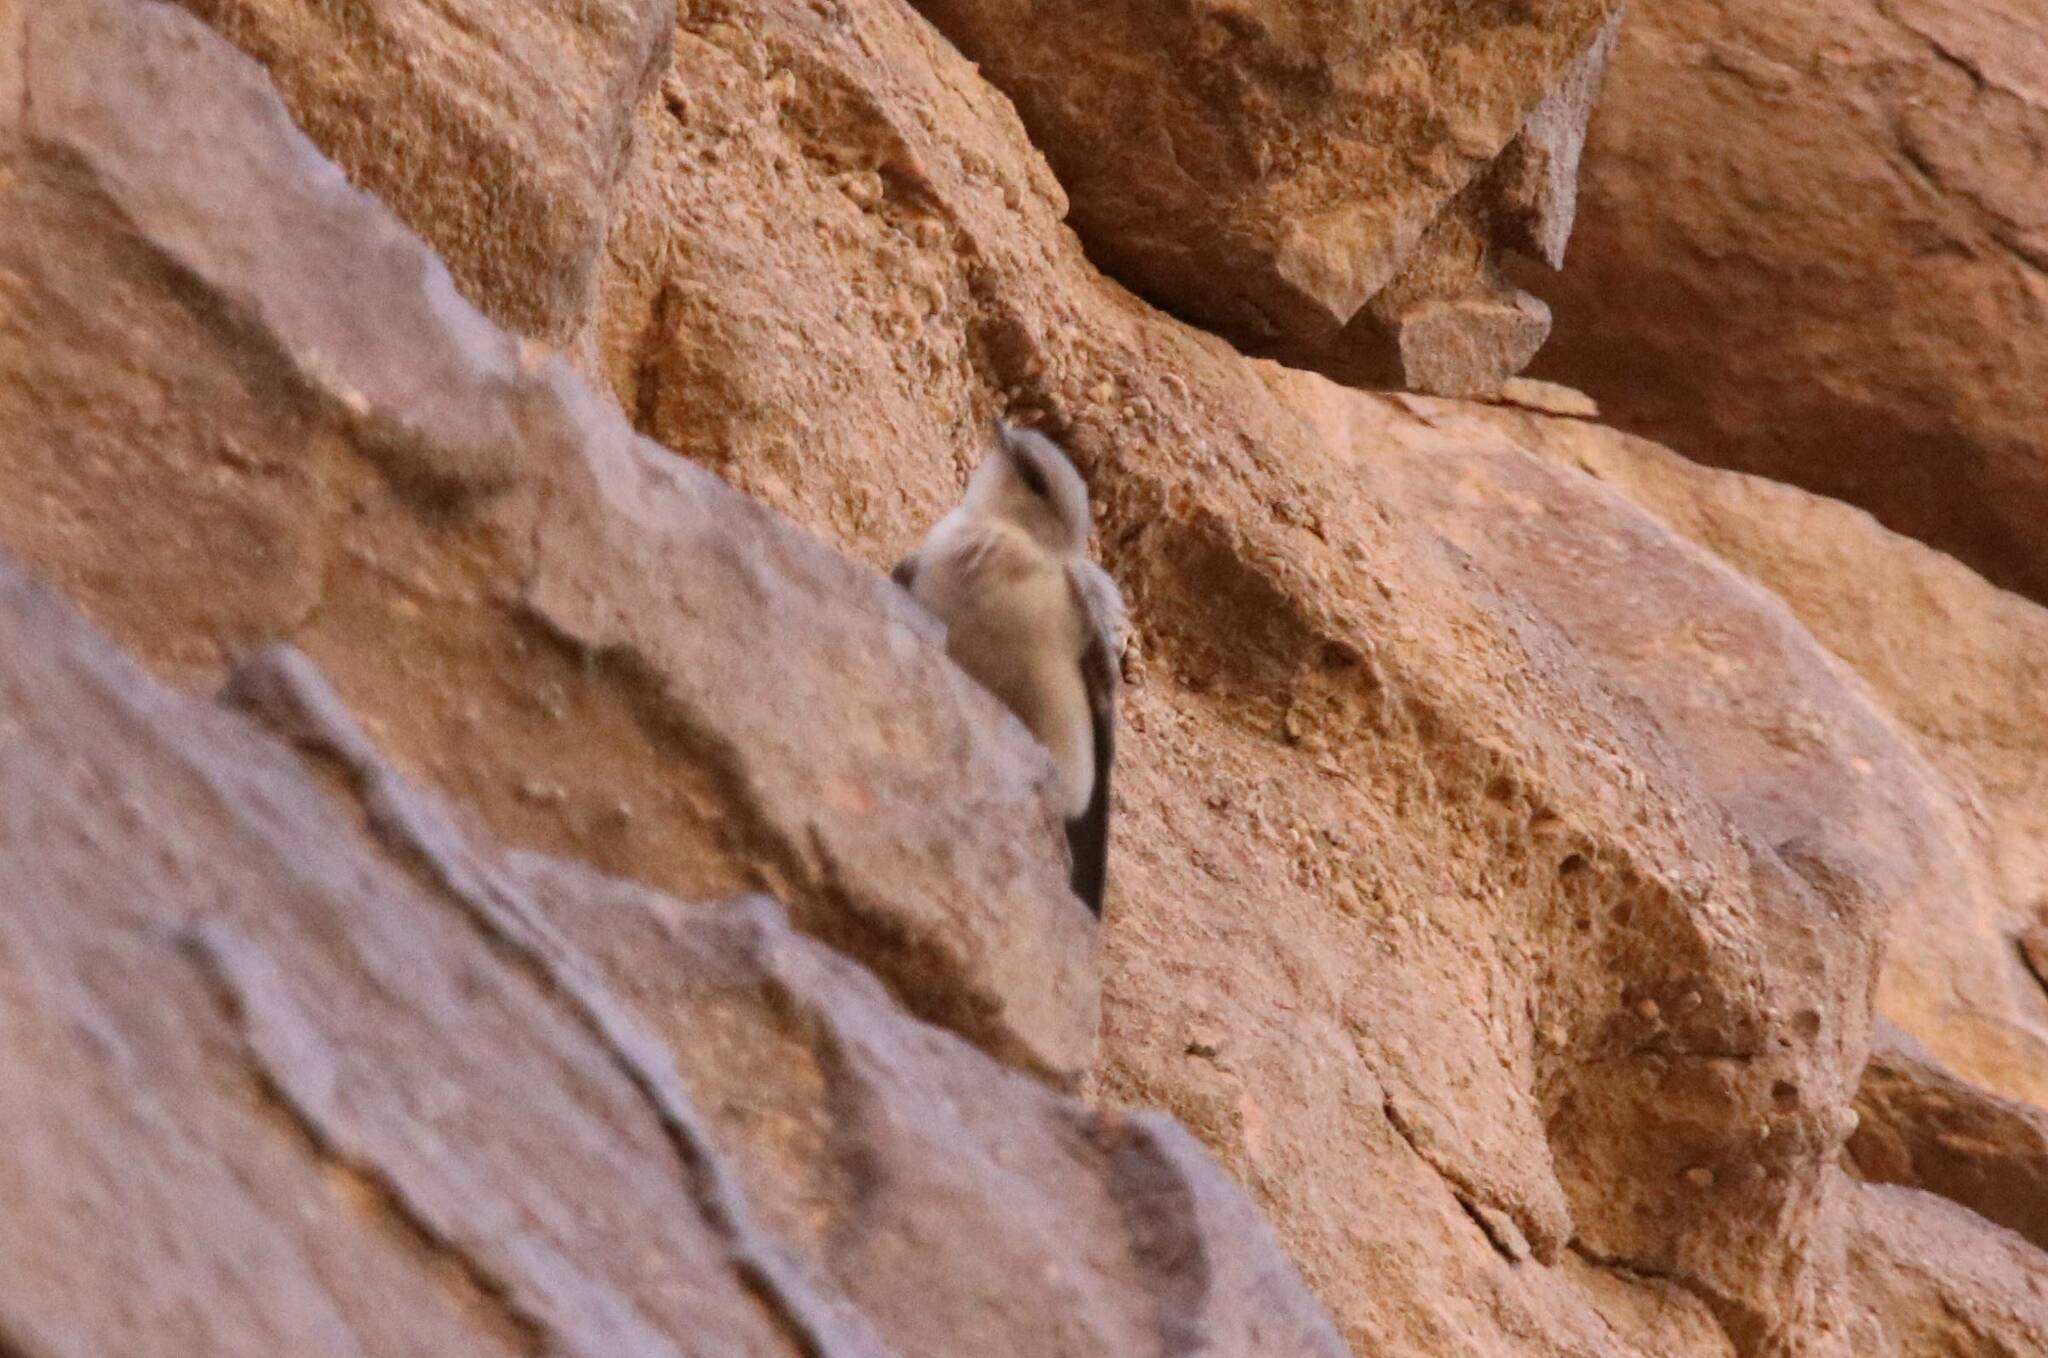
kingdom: Animalia
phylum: Chordata
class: Aves
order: Passeriformes
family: Hirundinidae
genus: Ptyonoprogne
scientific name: Ptyonoprogne fuligula
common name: Rock martin
